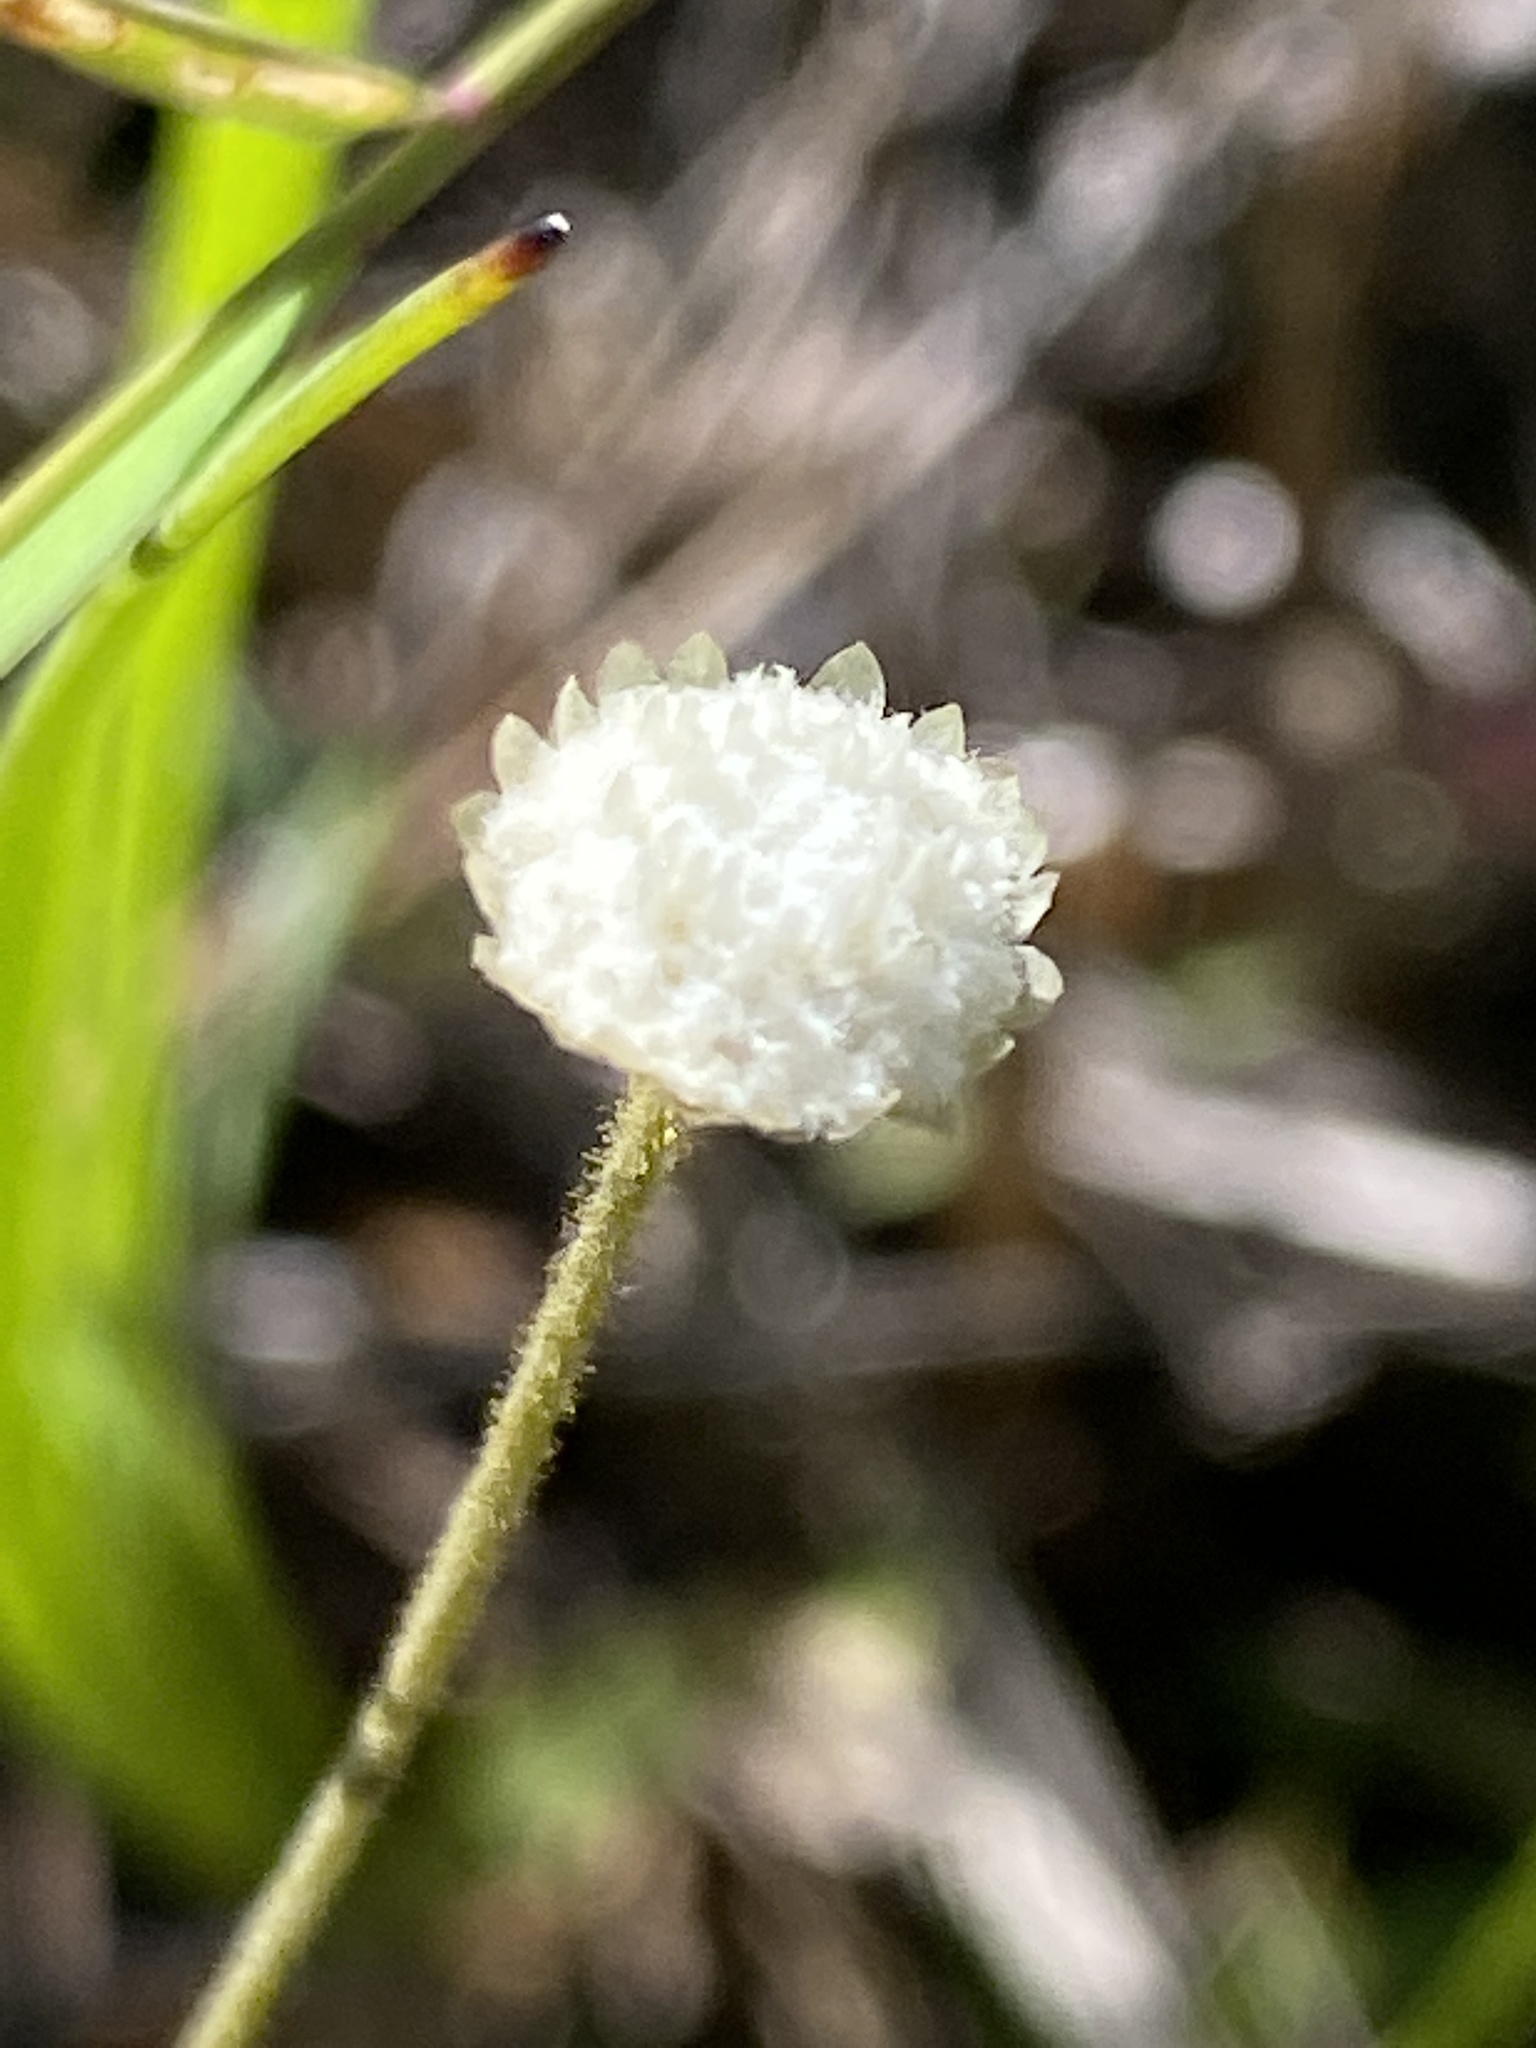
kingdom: Plantae
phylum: Tracheophyta
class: Liliopsida
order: Poales
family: Eriocaulaceae
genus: Syngonanthus
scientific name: Syngonanthus flavidulus
